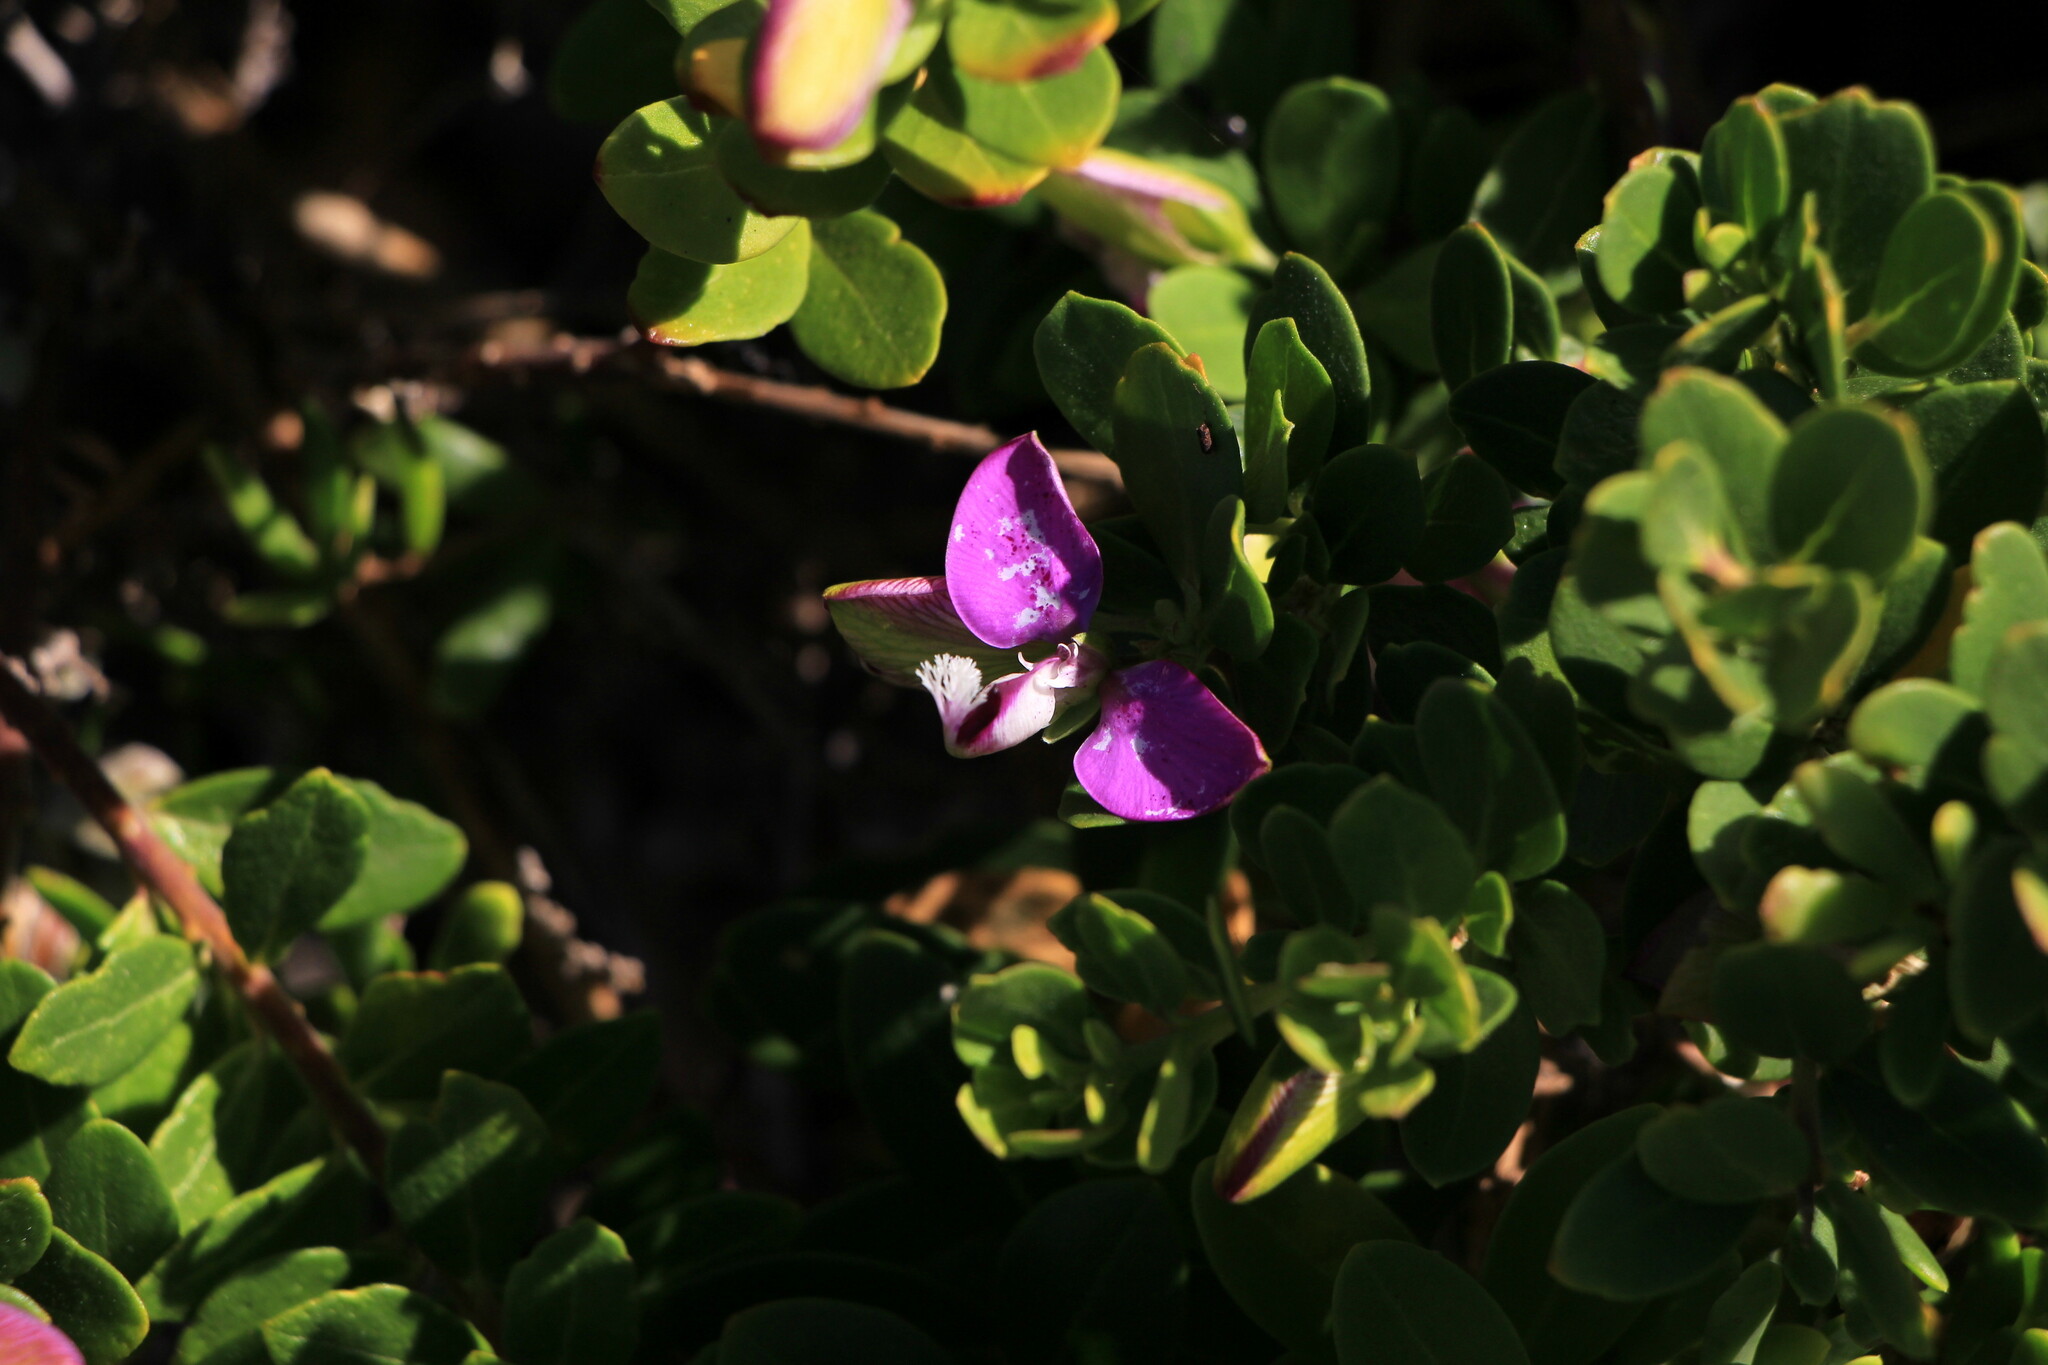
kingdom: Plantae
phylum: Tracheophyta
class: Magnoliopsida
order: Fabales
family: Polygalaceae
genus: Polygala
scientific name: Polygala myrtifolia
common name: Myrtle-leaf milkwort
